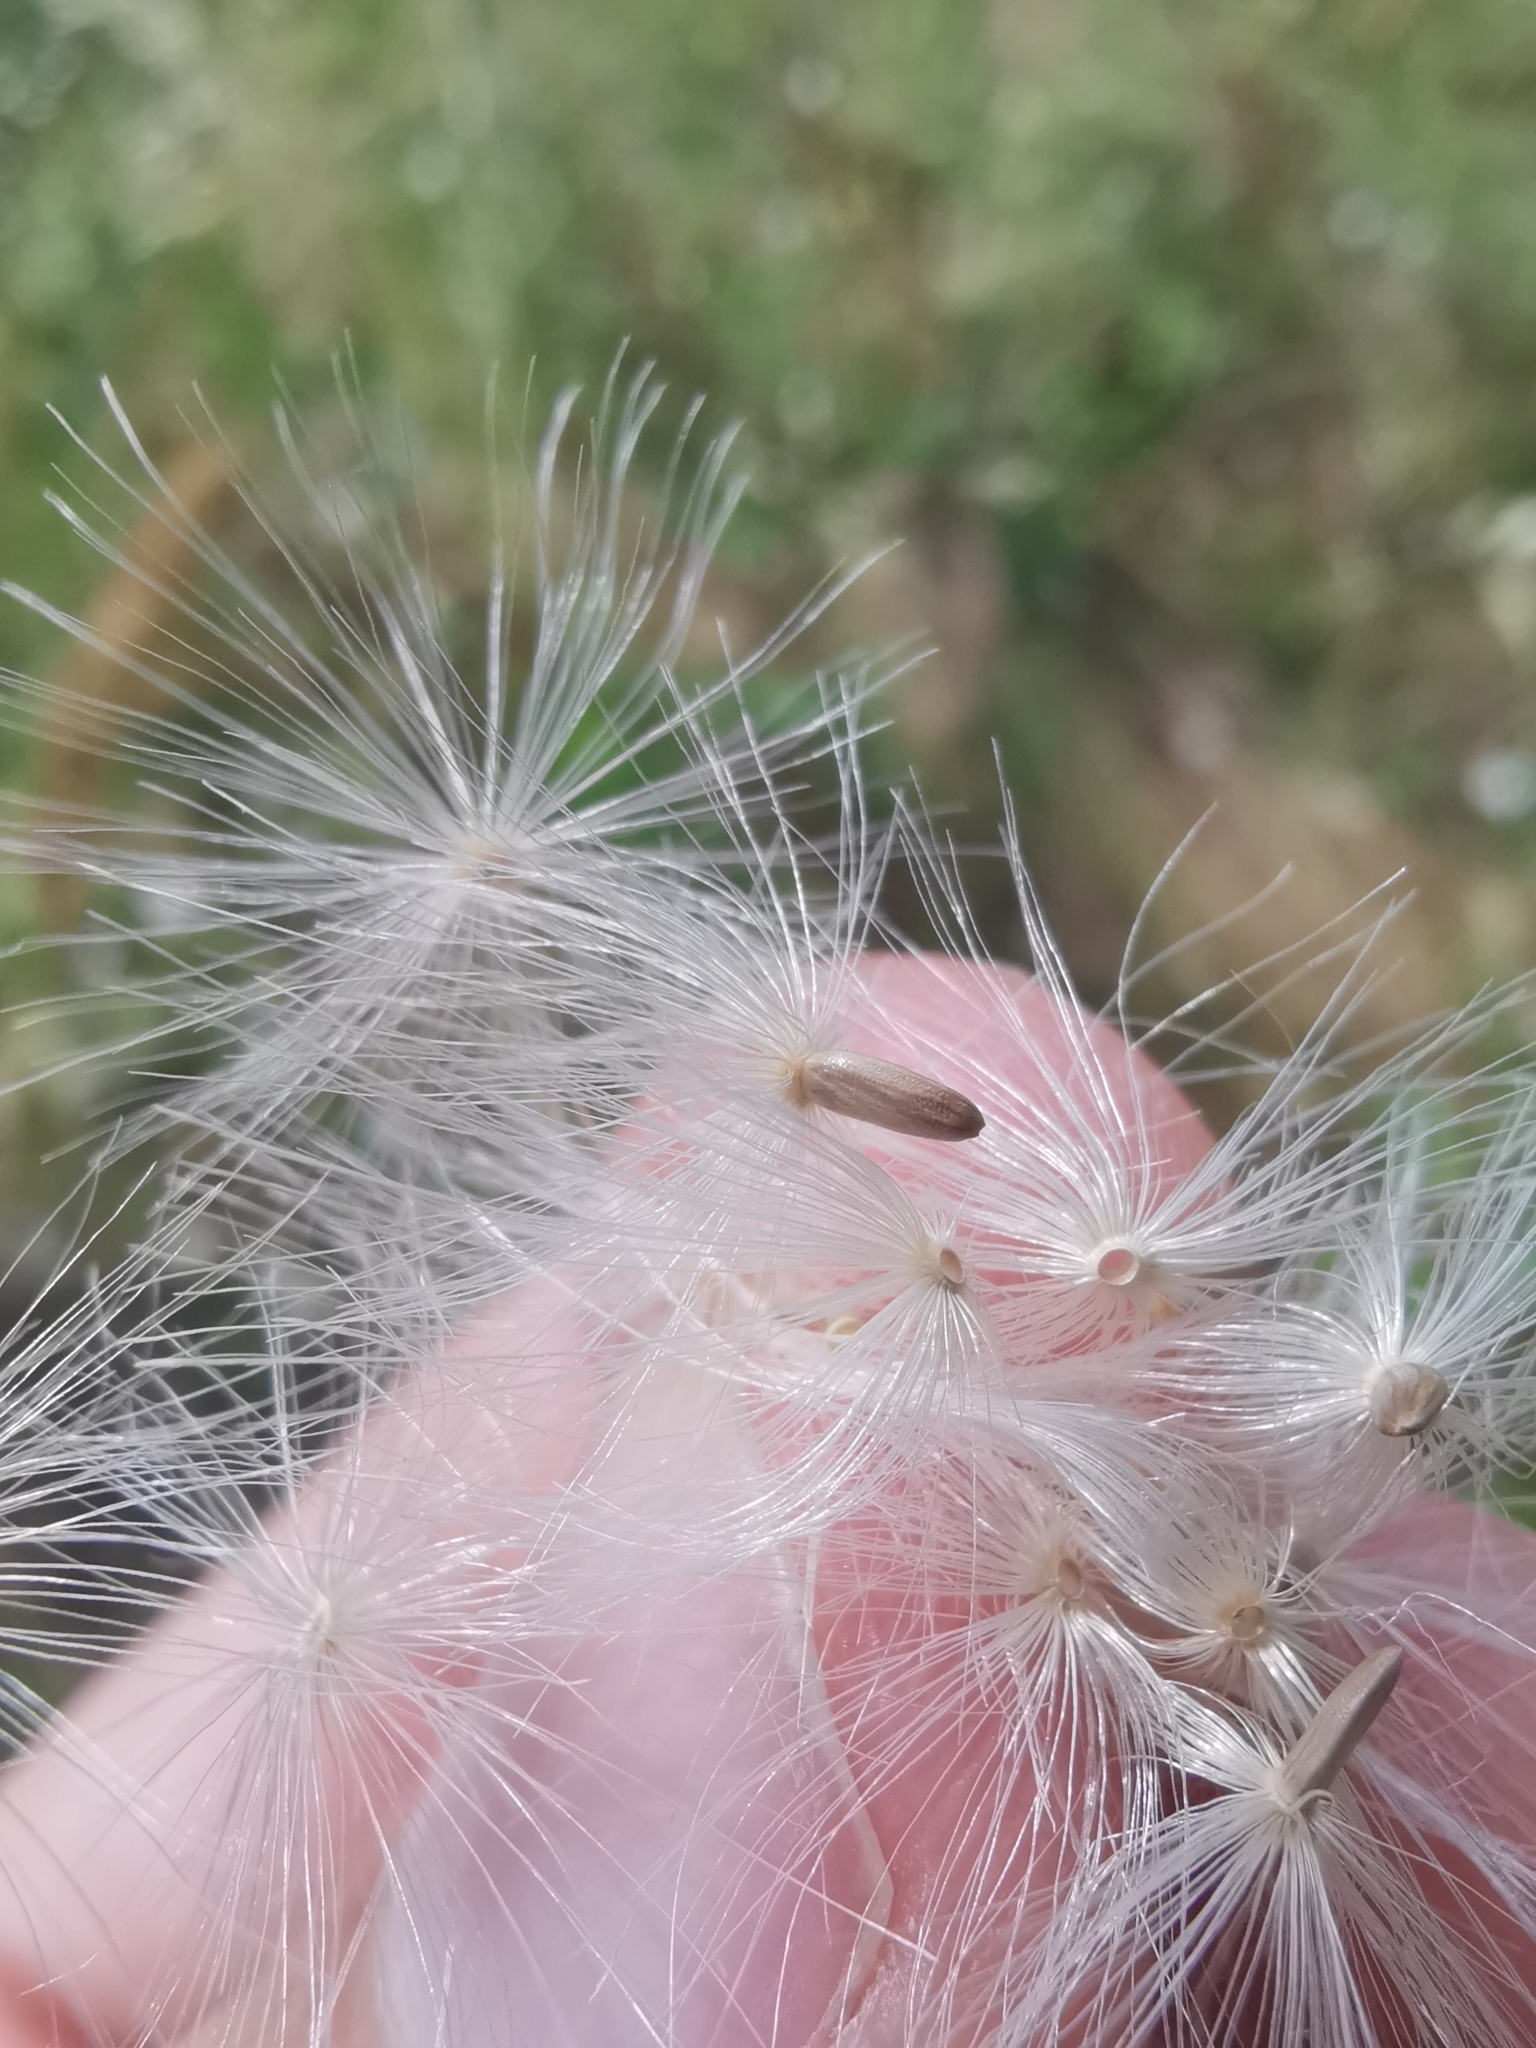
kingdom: Plantae
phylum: Tracheophyta
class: Magnoliopsida
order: Asterales
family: Asteraceae
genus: Carduus
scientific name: Carduus acanthoides
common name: Plumeless thistle
